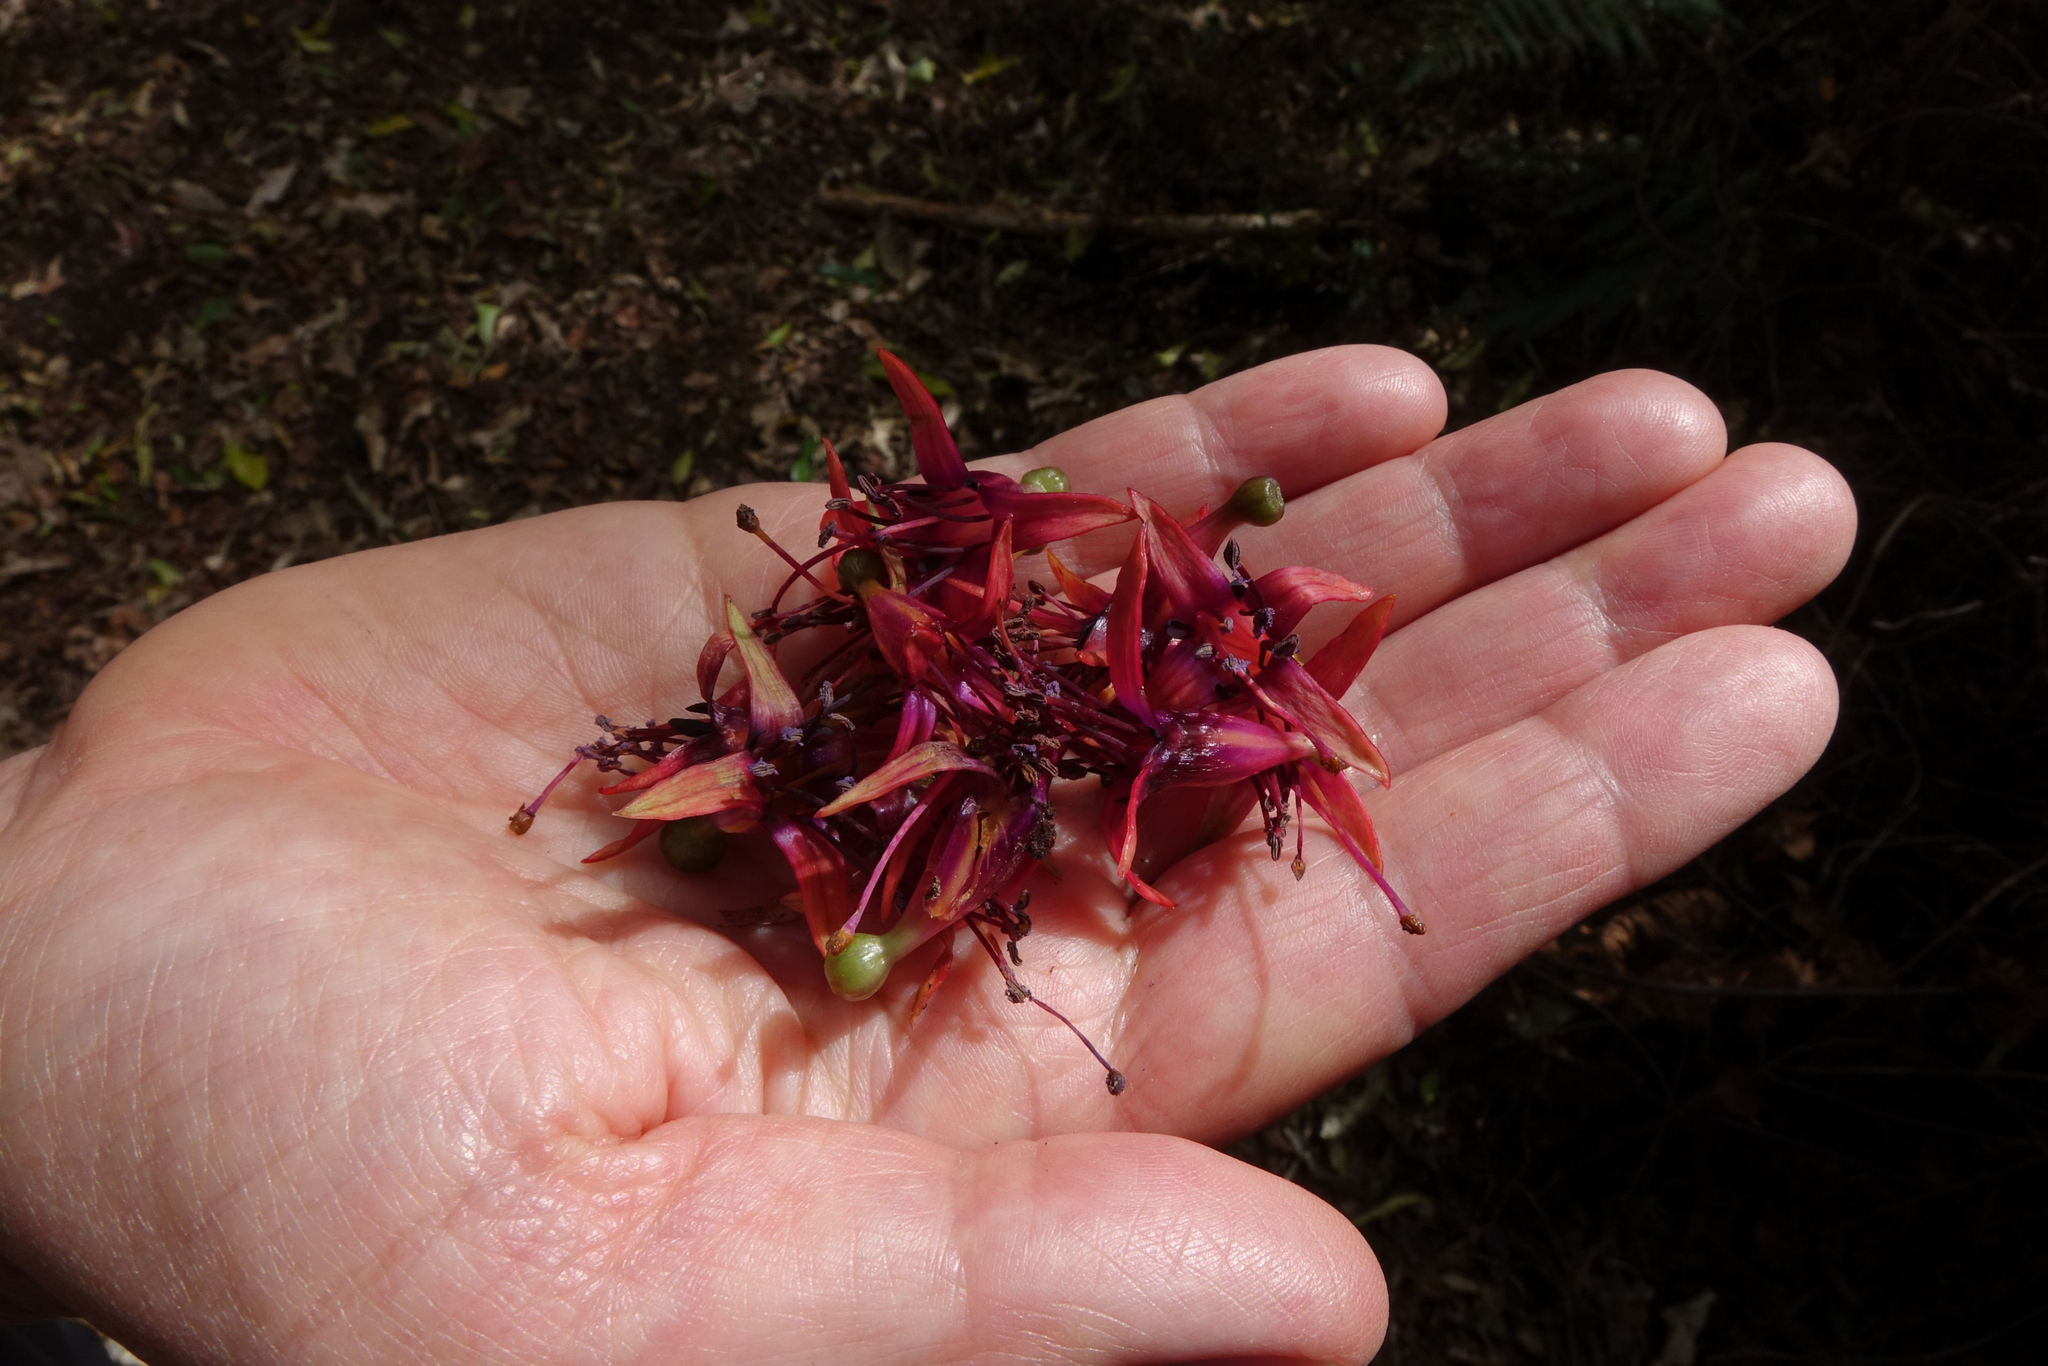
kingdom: Plantae
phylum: Tracheophyta
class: Magnoliopsida
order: Myrtales
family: Onagraceae
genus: Fuchsia
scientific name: Fuchsia excorticata
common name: Tree fuchsia
